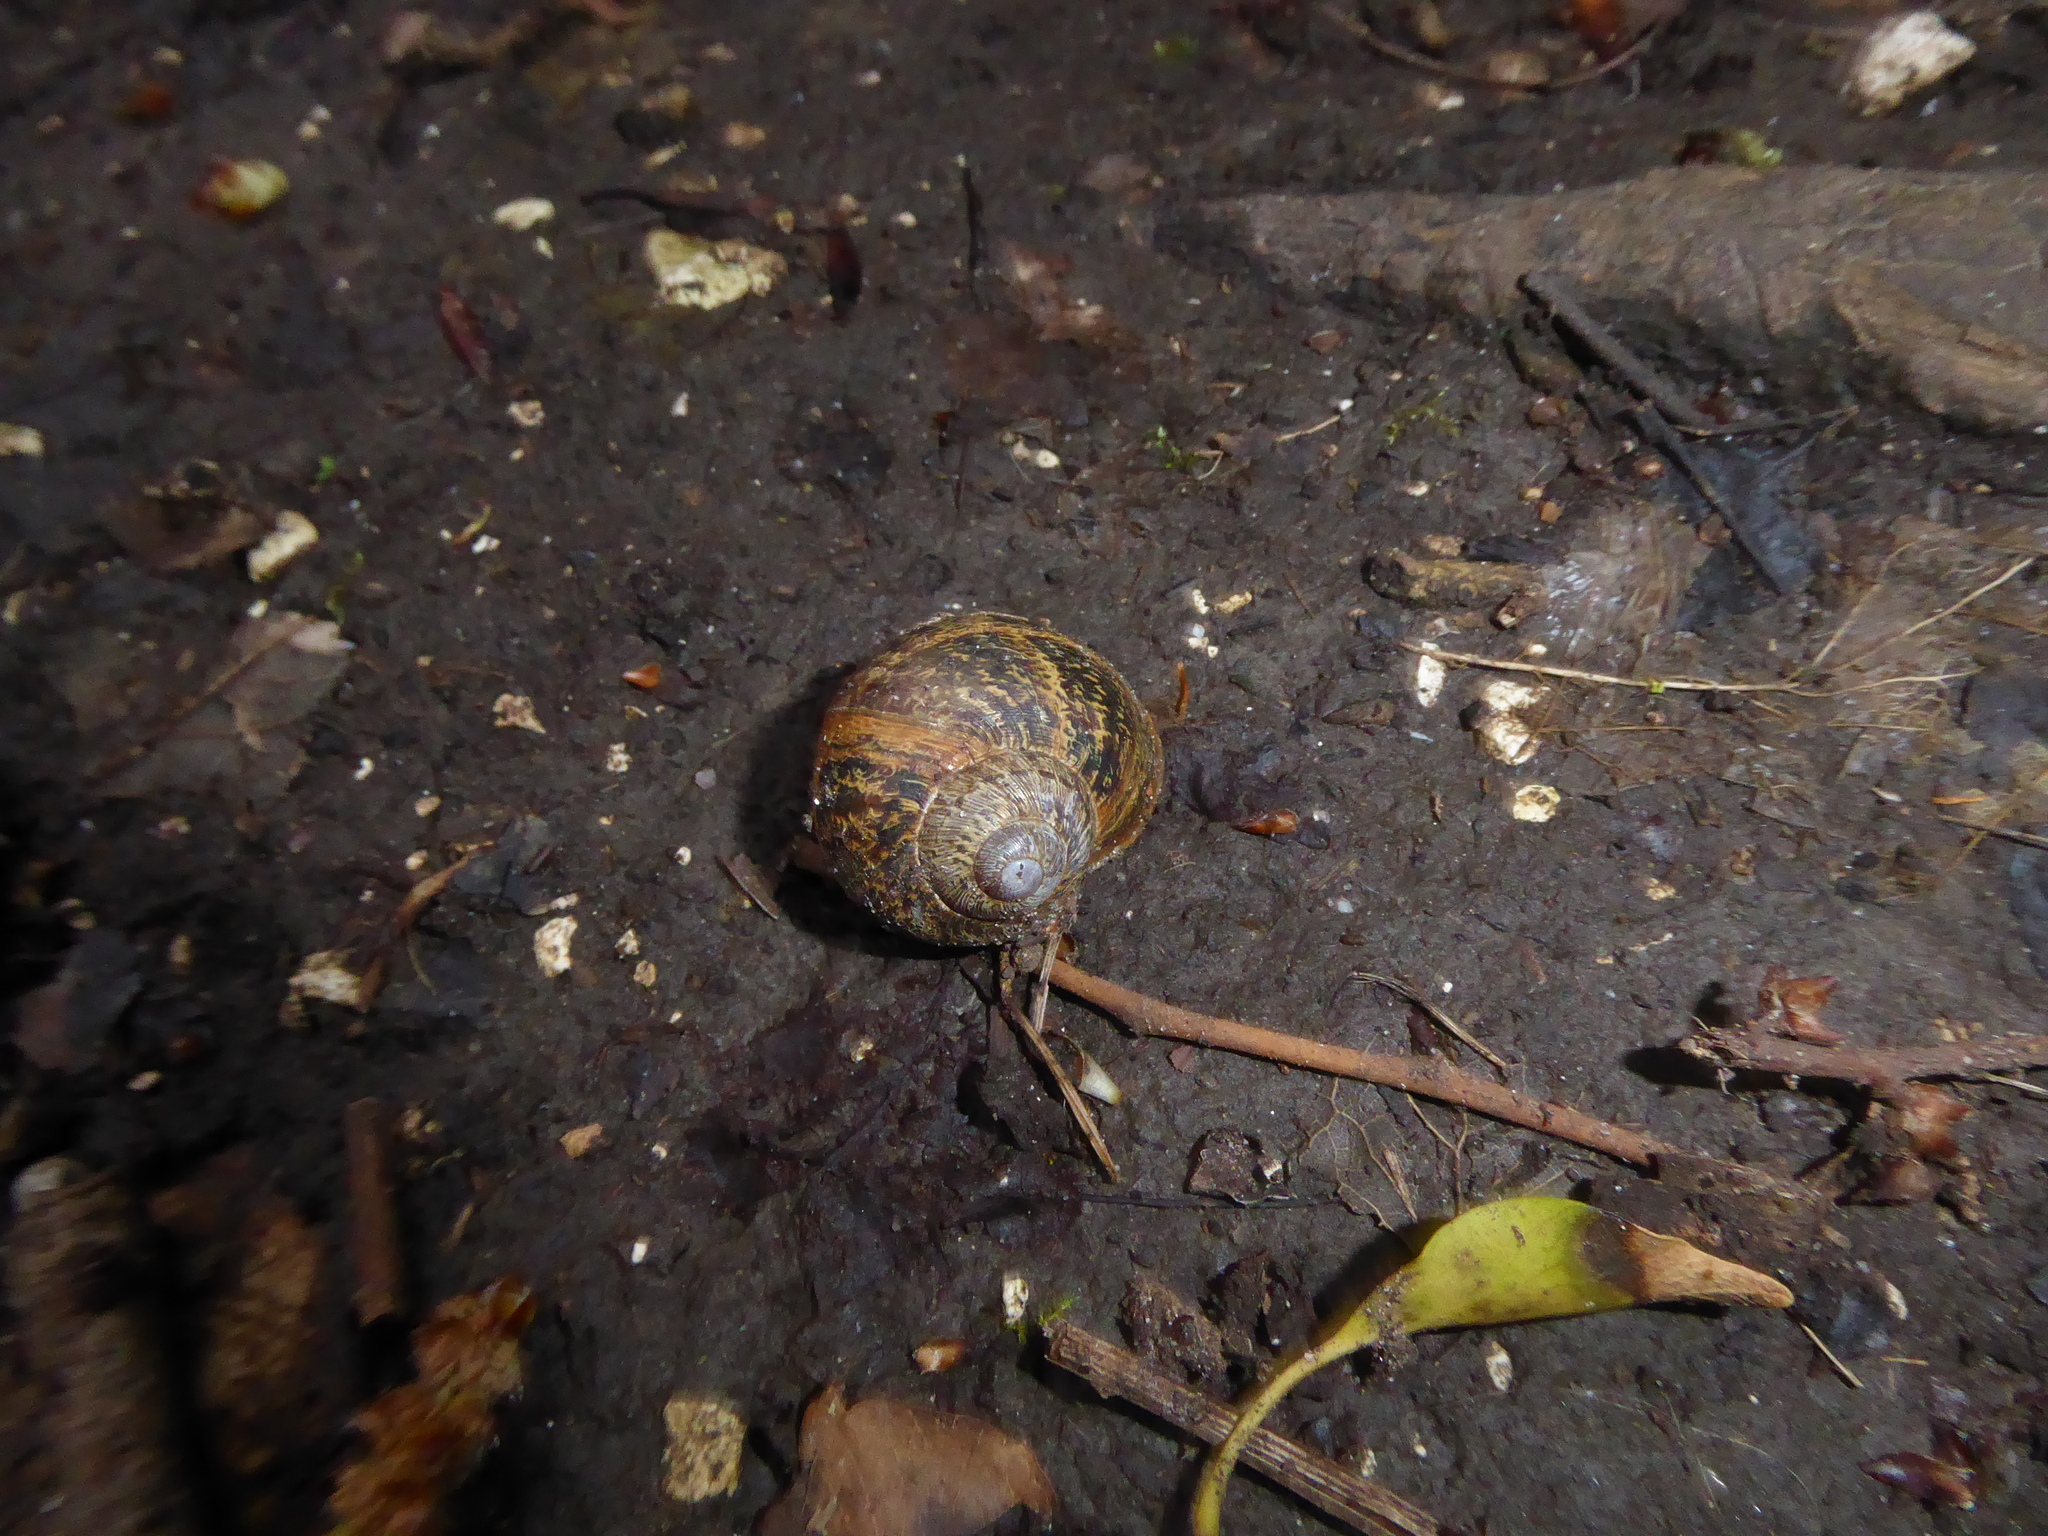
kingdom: Animalia
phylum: Mollusca
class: Gastropoda
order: Stylommatophora
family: Helicidae
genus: Cornu
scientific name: Cornu aspersum
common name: Brown garden snail
